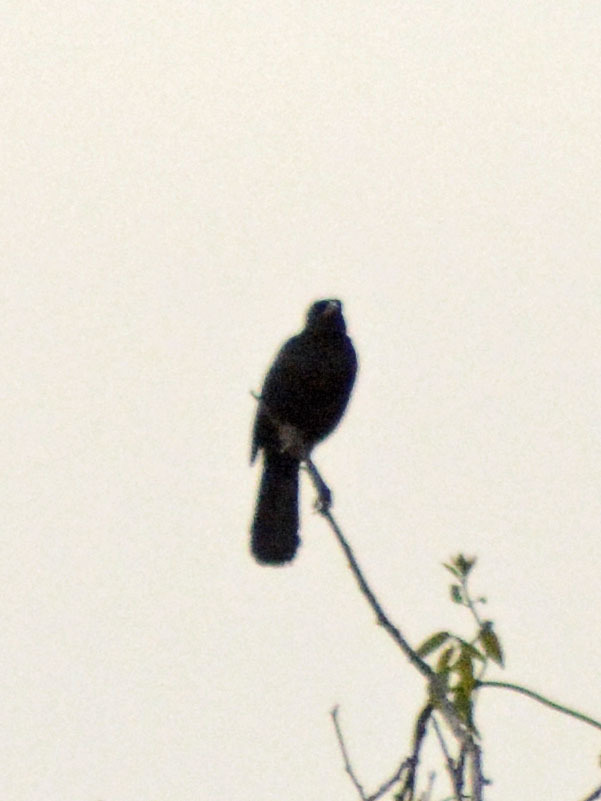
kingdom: Animalia
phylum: Chordata
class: Aves
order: Passeriformes
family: Icteridae
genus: Dives
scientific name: Dives dives
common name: Melodious blackbird
